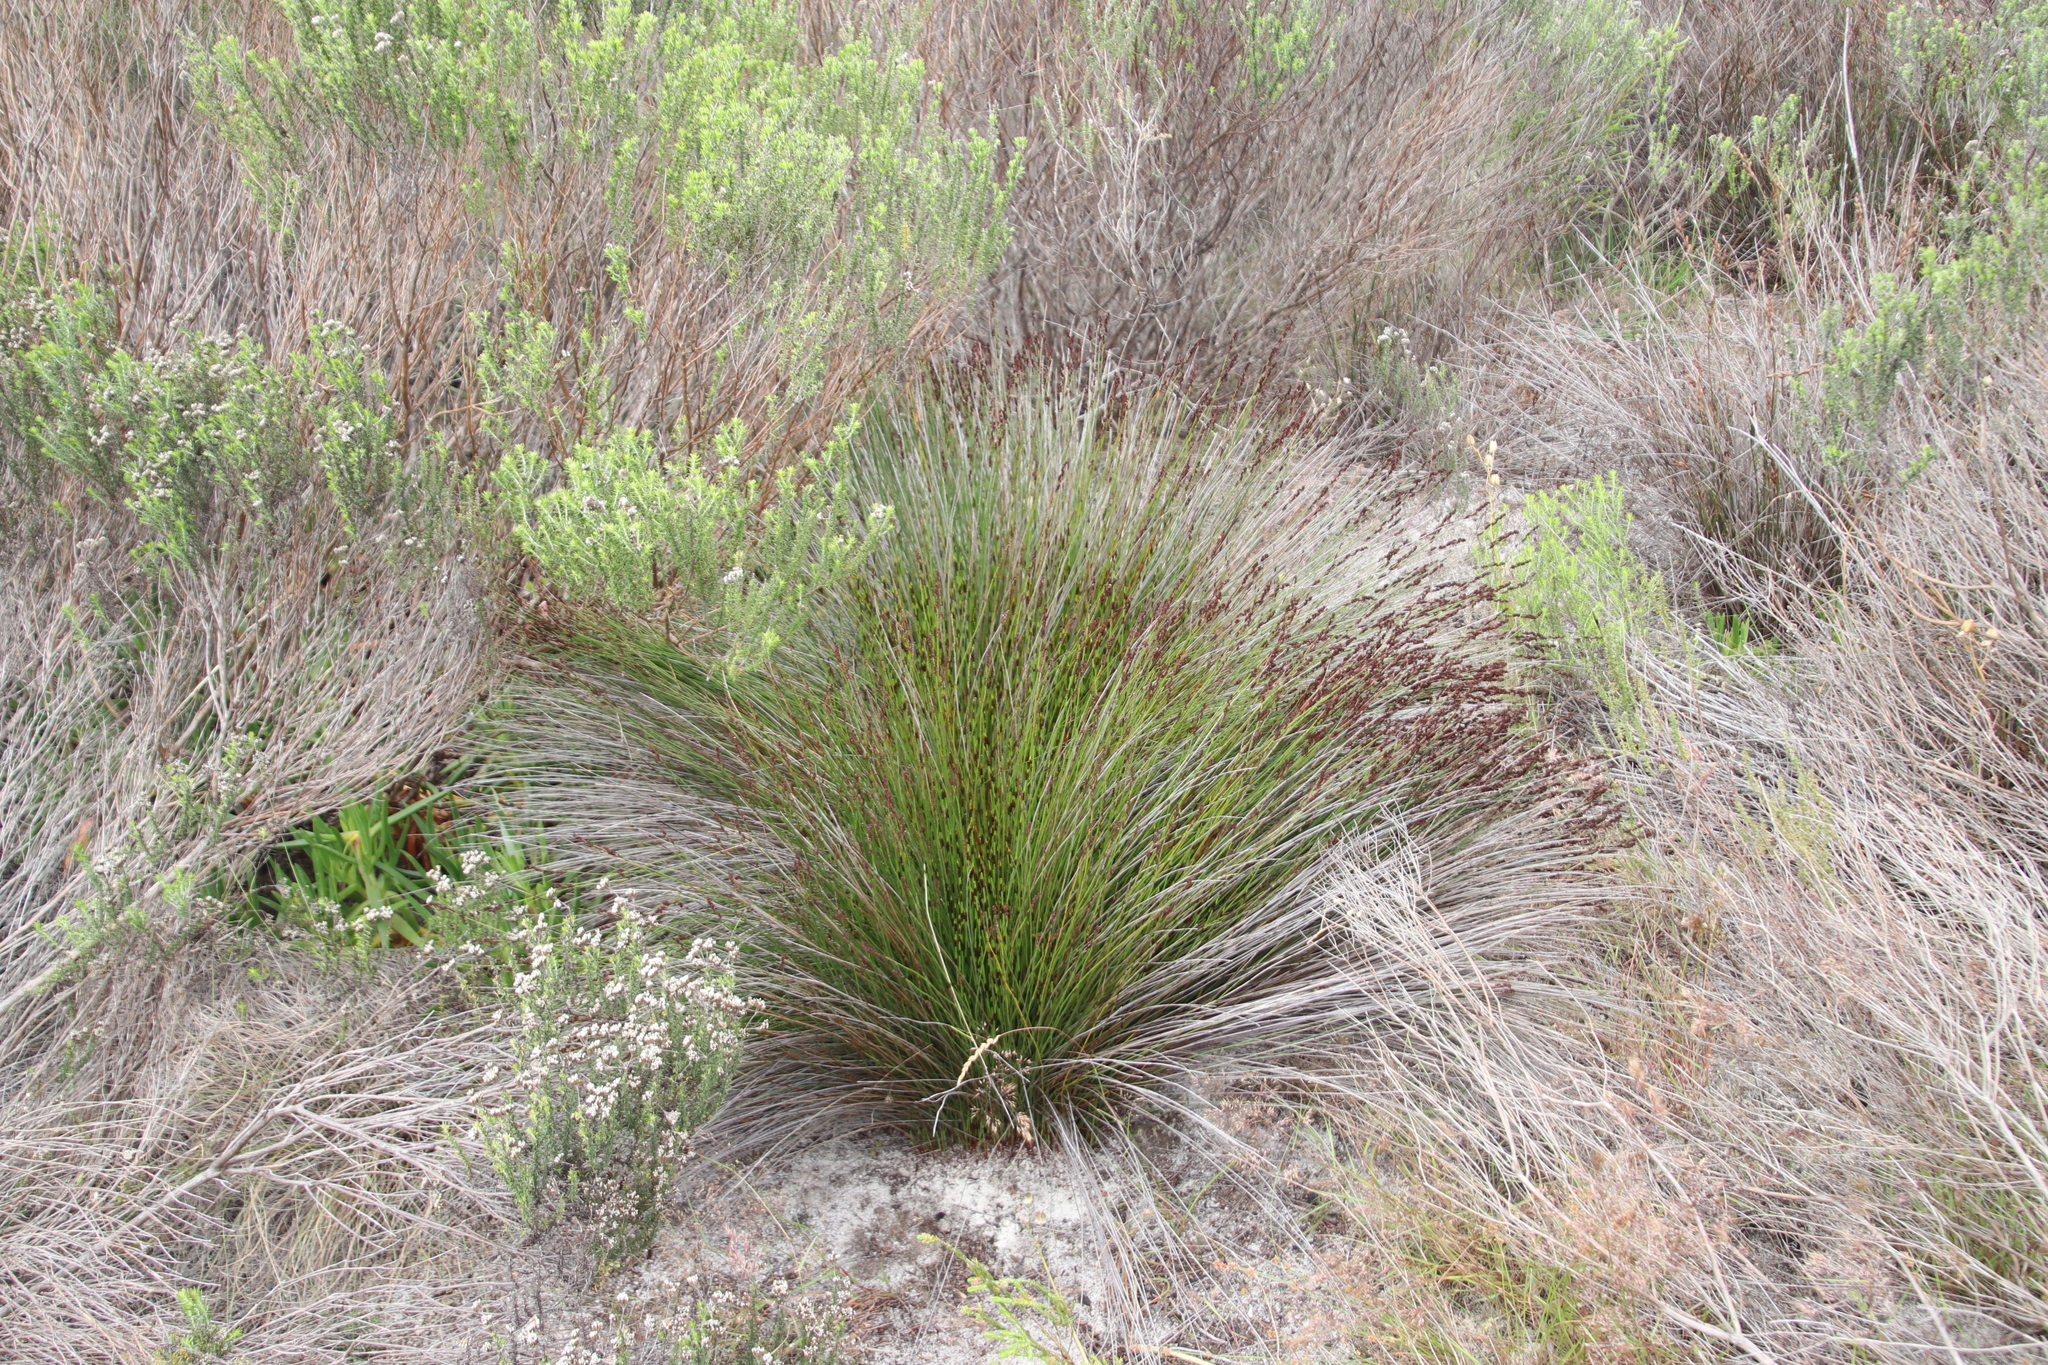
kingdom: Plantae
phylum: Tracheophyta
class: Liliopsida
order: Poales
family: Restionaceae
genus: Elegia
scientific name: Elegia tectorum
